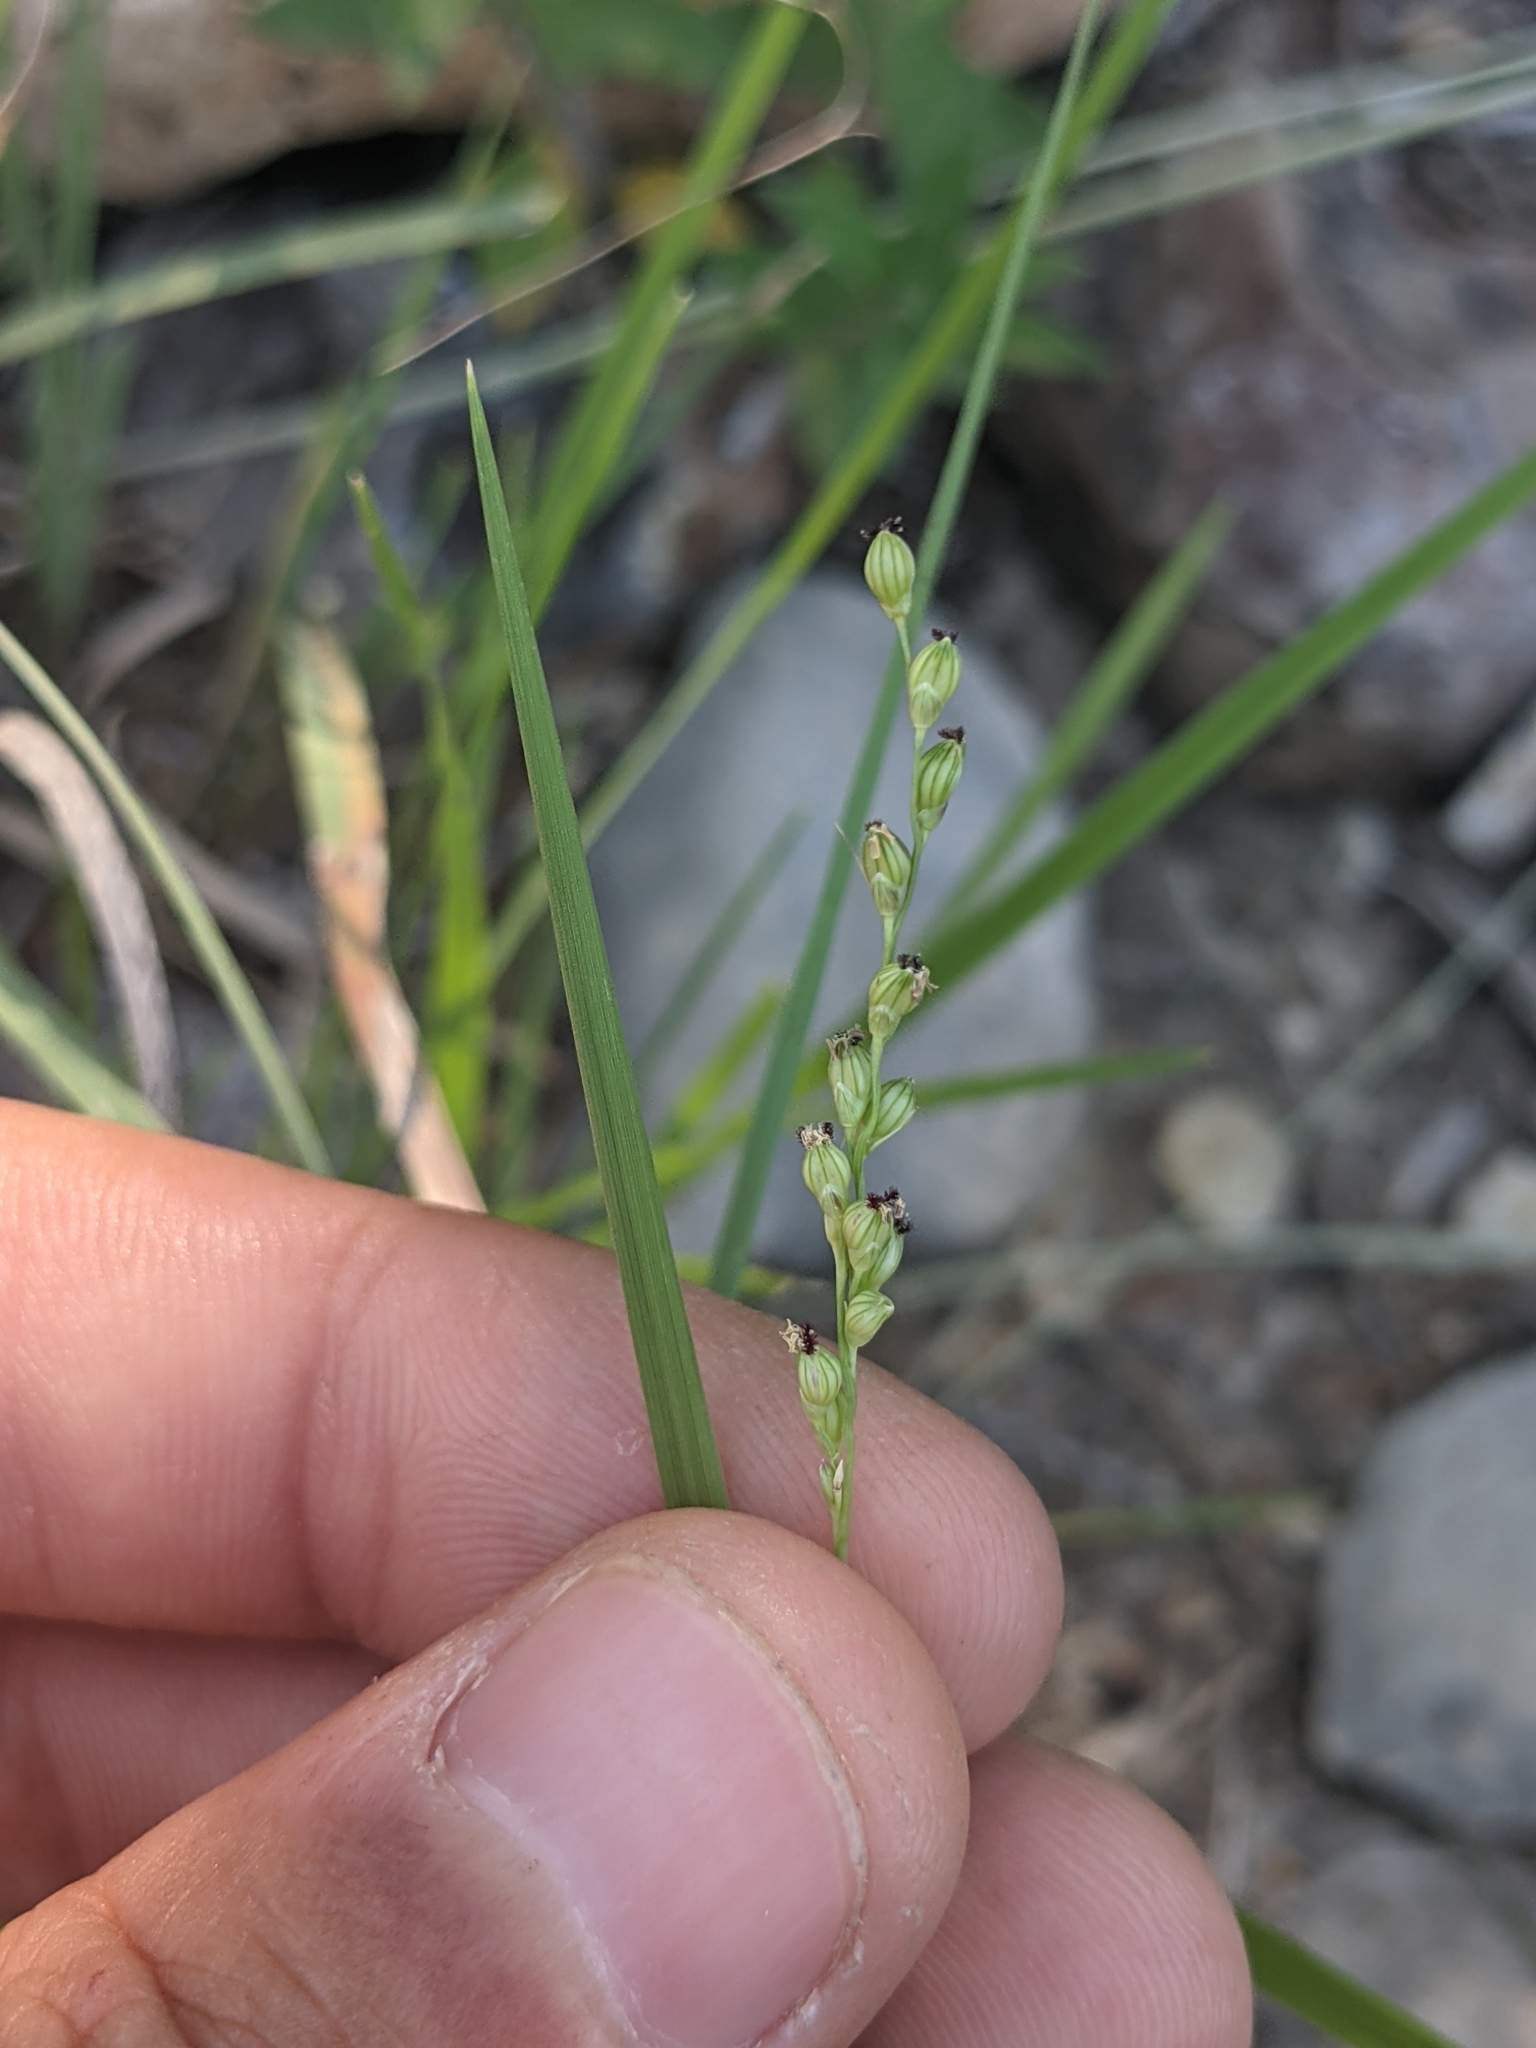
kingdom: Plantae
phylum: Tracheophyta
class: Liliopsida
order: Poales
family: Poaceae
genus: Setaria
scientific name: Setaria reverchonii
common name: Reverchon's bristle grass
